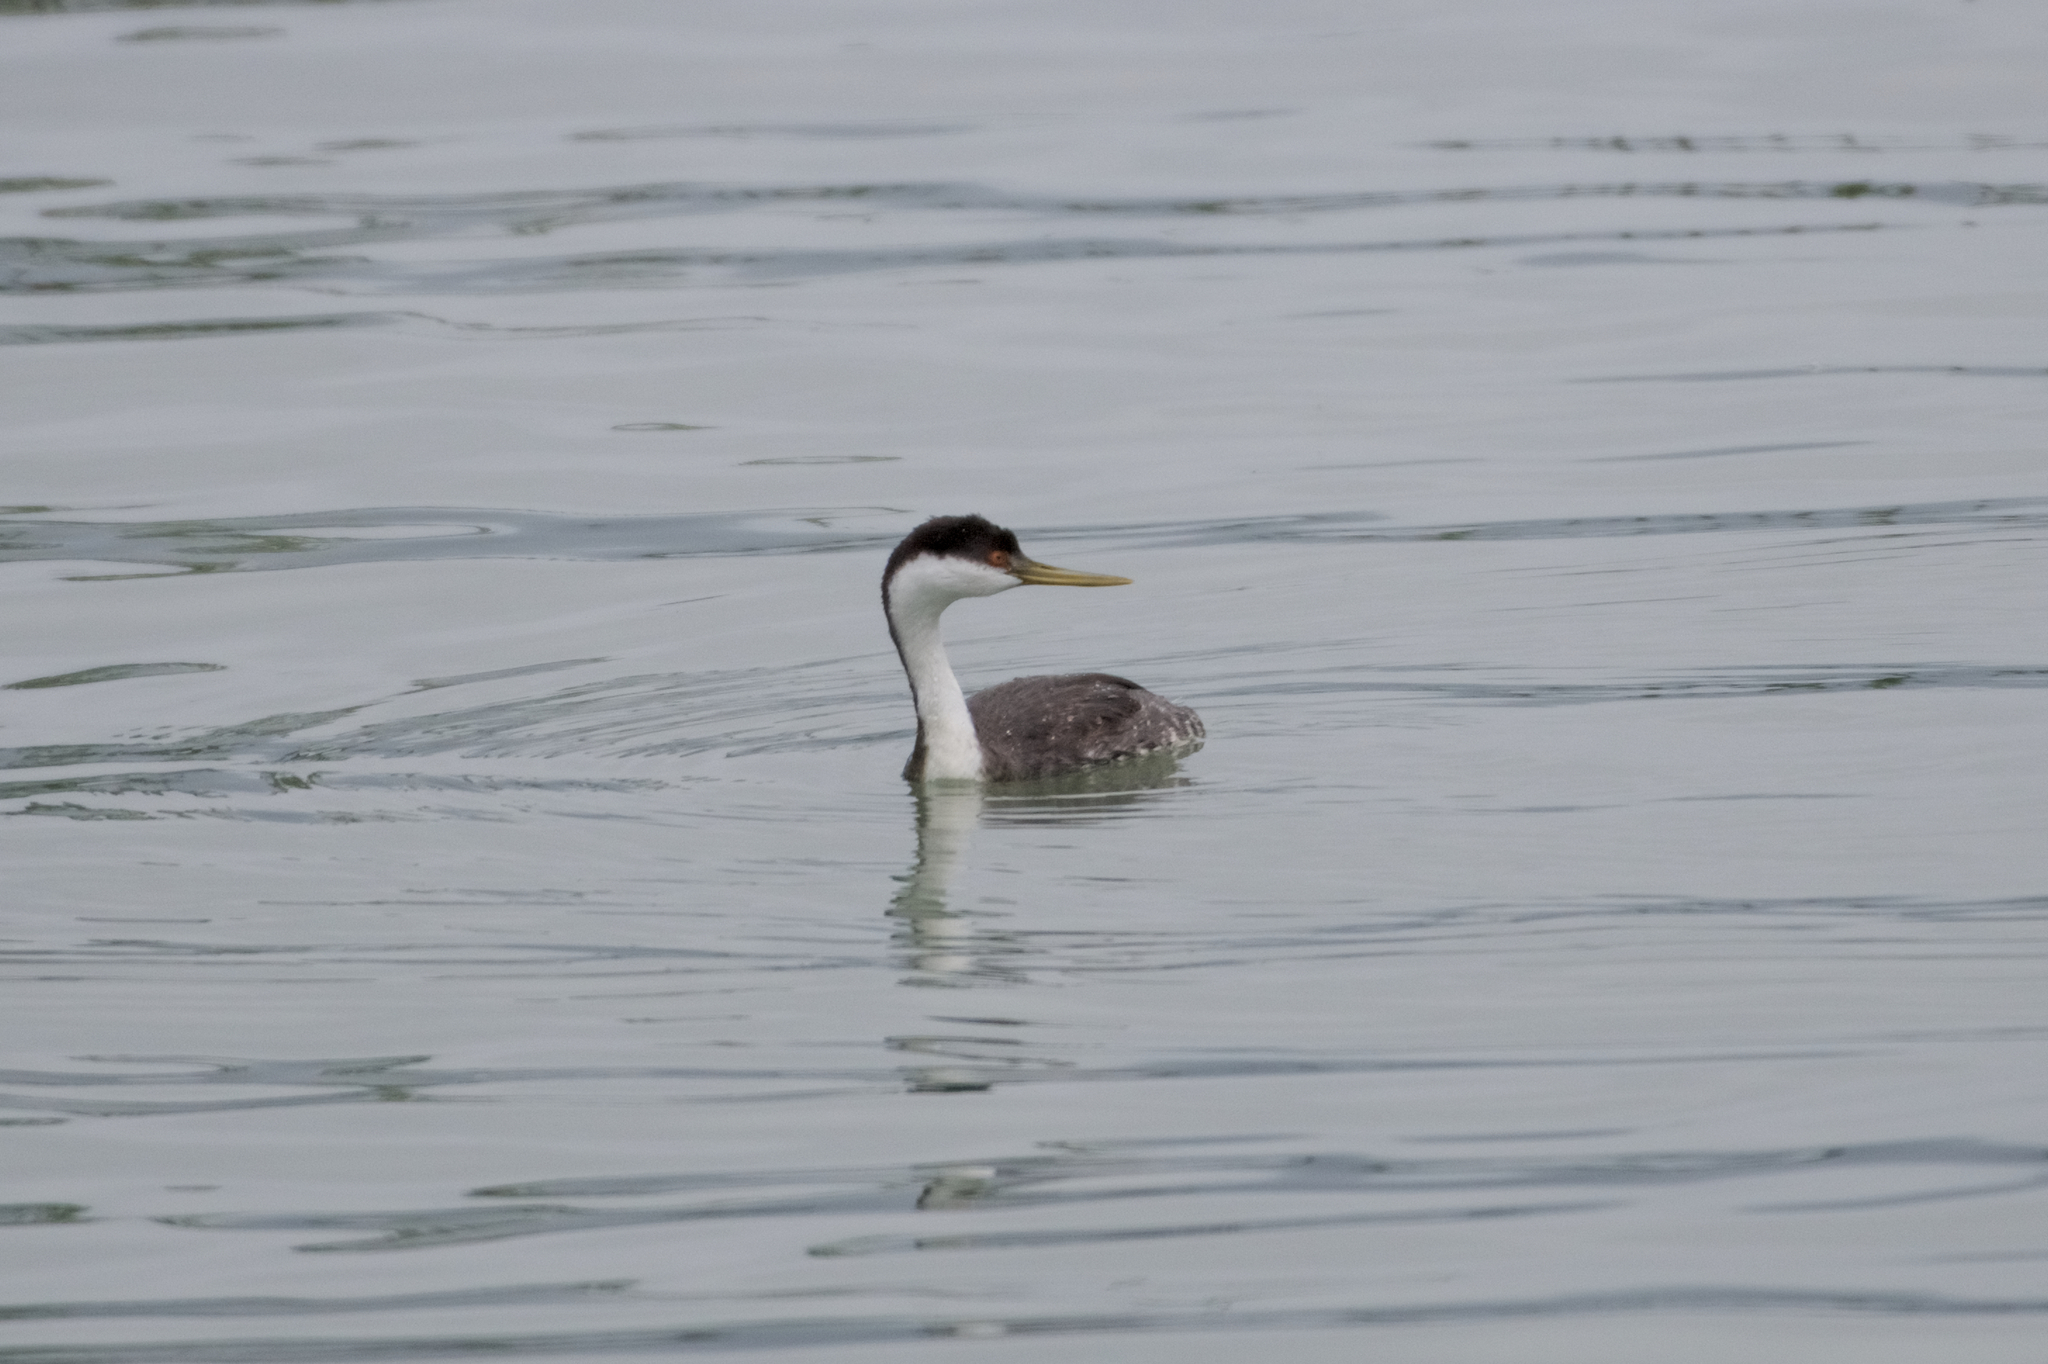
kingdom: Animalia
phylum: Chordata
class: Aves
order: Podicipediformes
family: Podicipedidae
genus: Aechmophorus
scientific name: Aechmophorus occidentalis
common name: Western grebe
